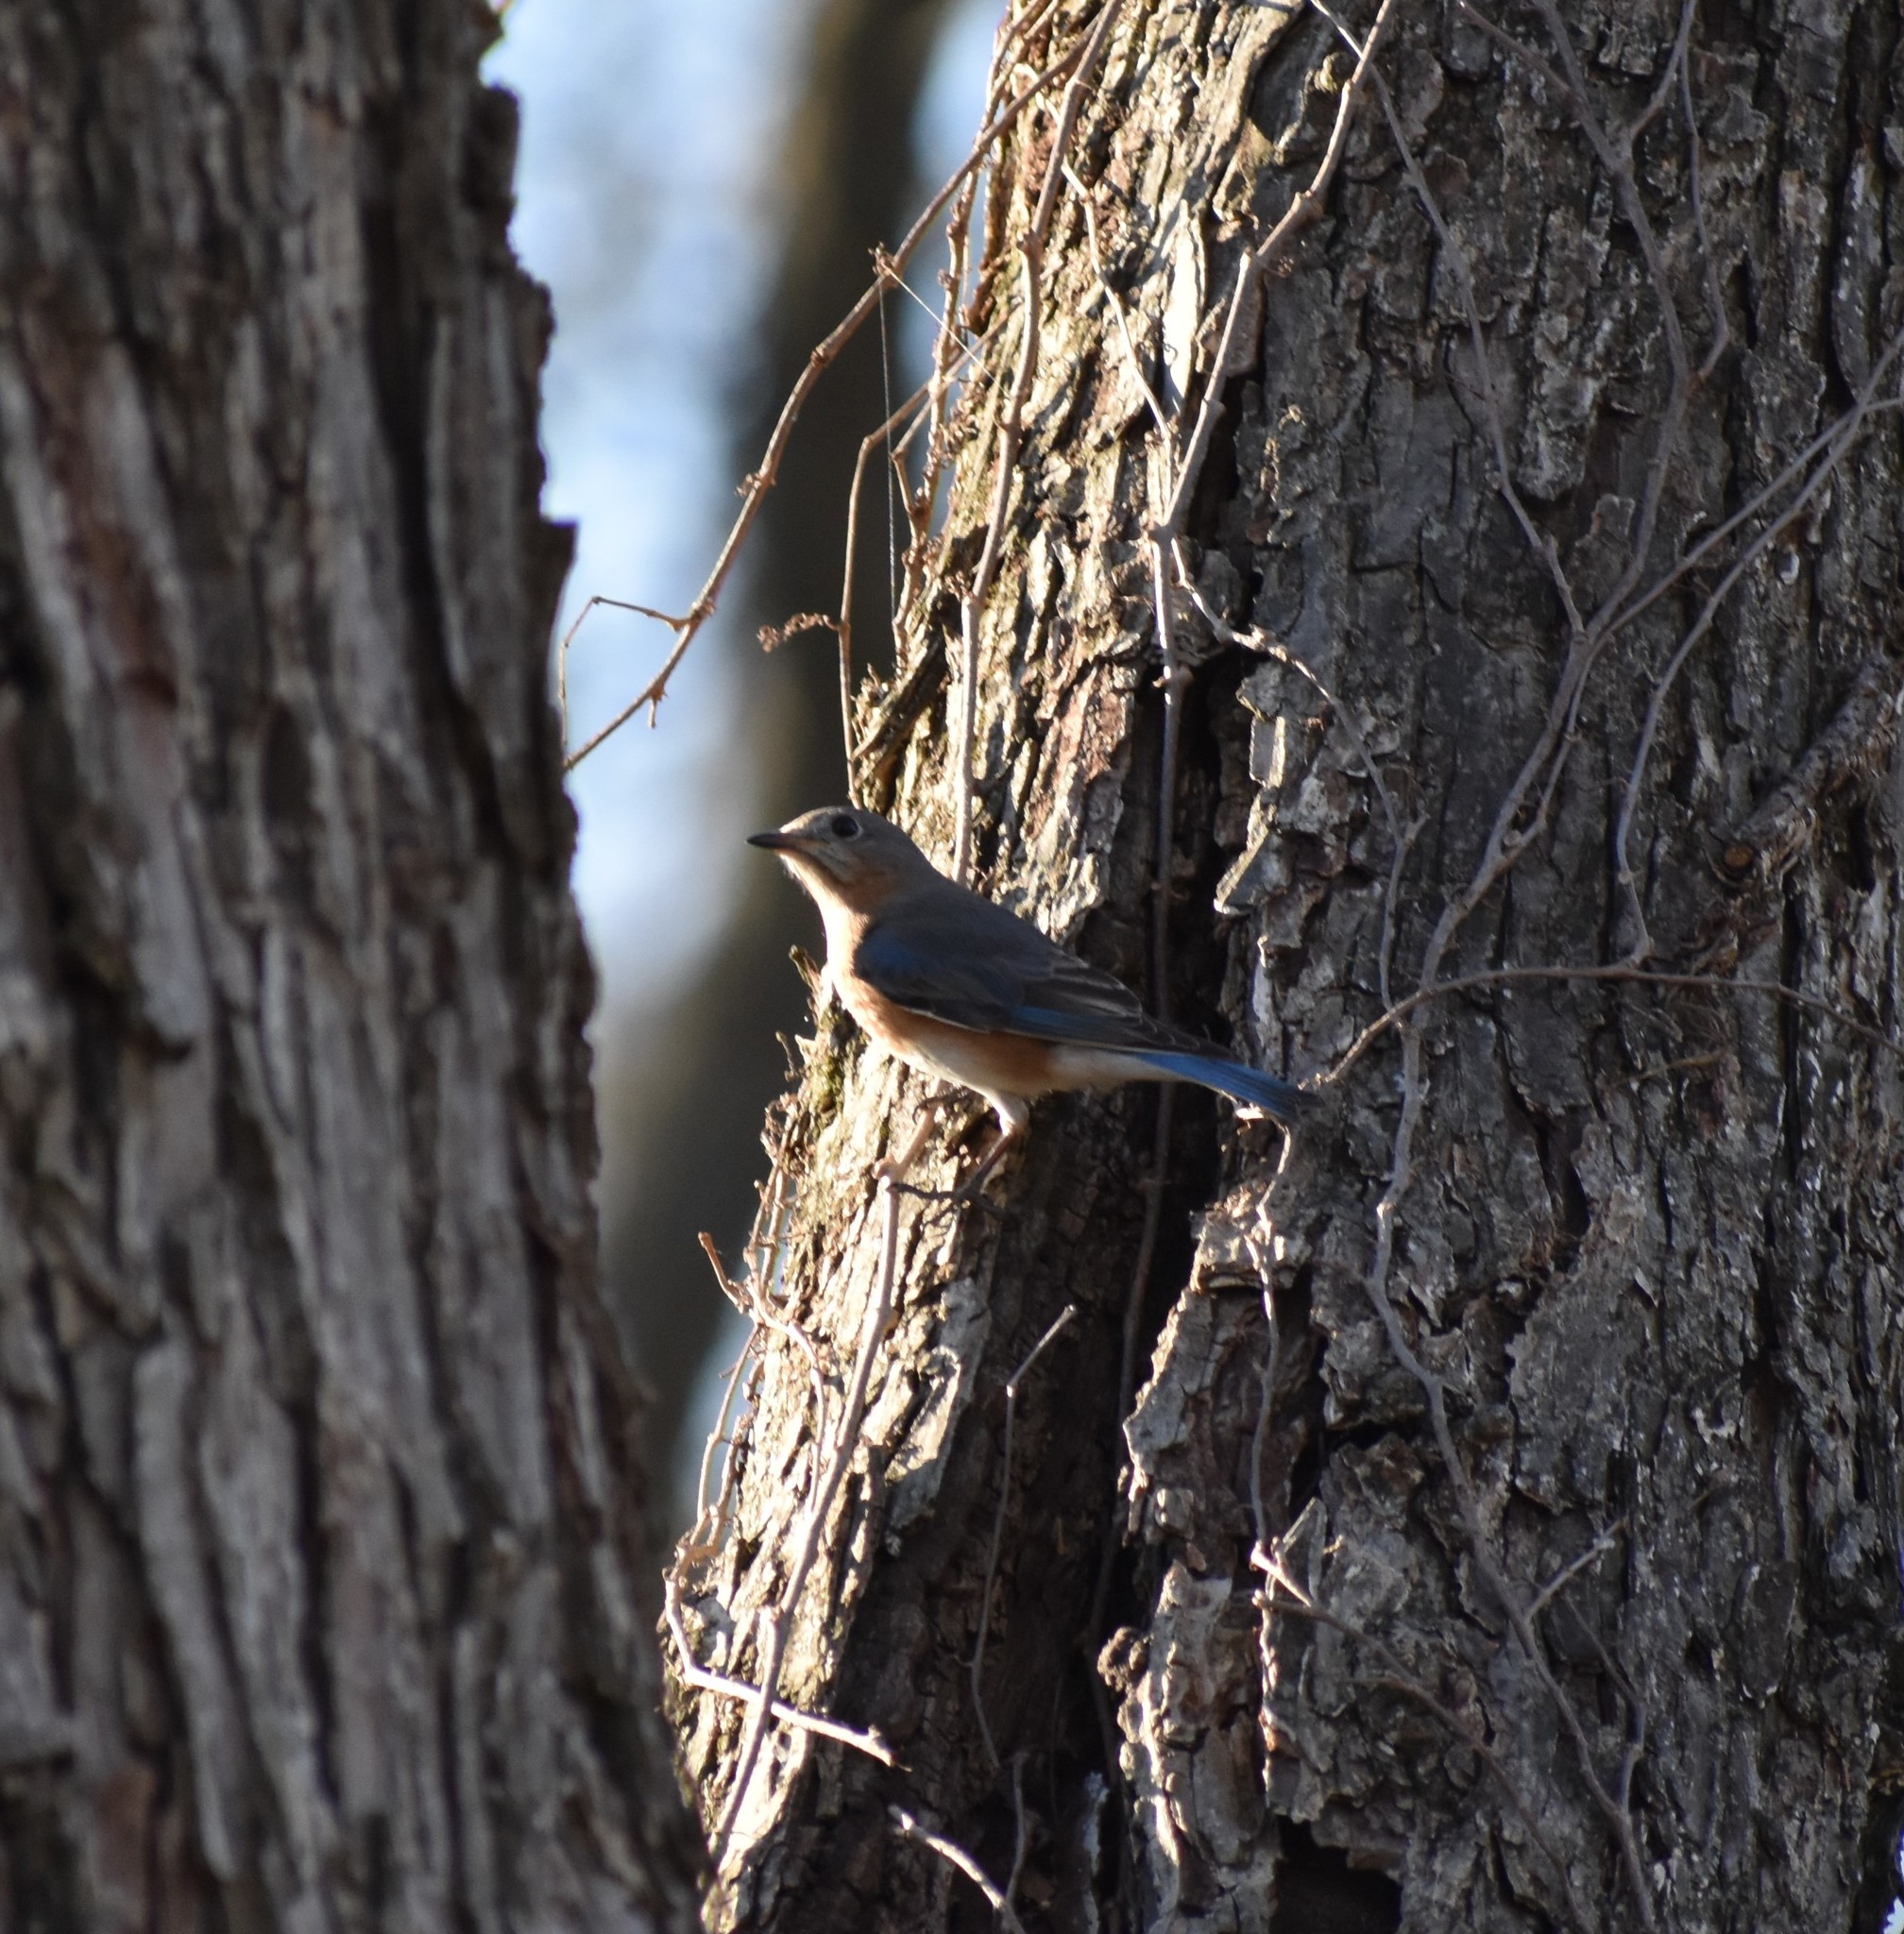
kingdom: Animalia
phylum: Chordata
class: Aves
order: Passeriformes
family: Turdidae
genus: Sialia
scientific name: Sialia sialis
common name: Eastern bluebird
